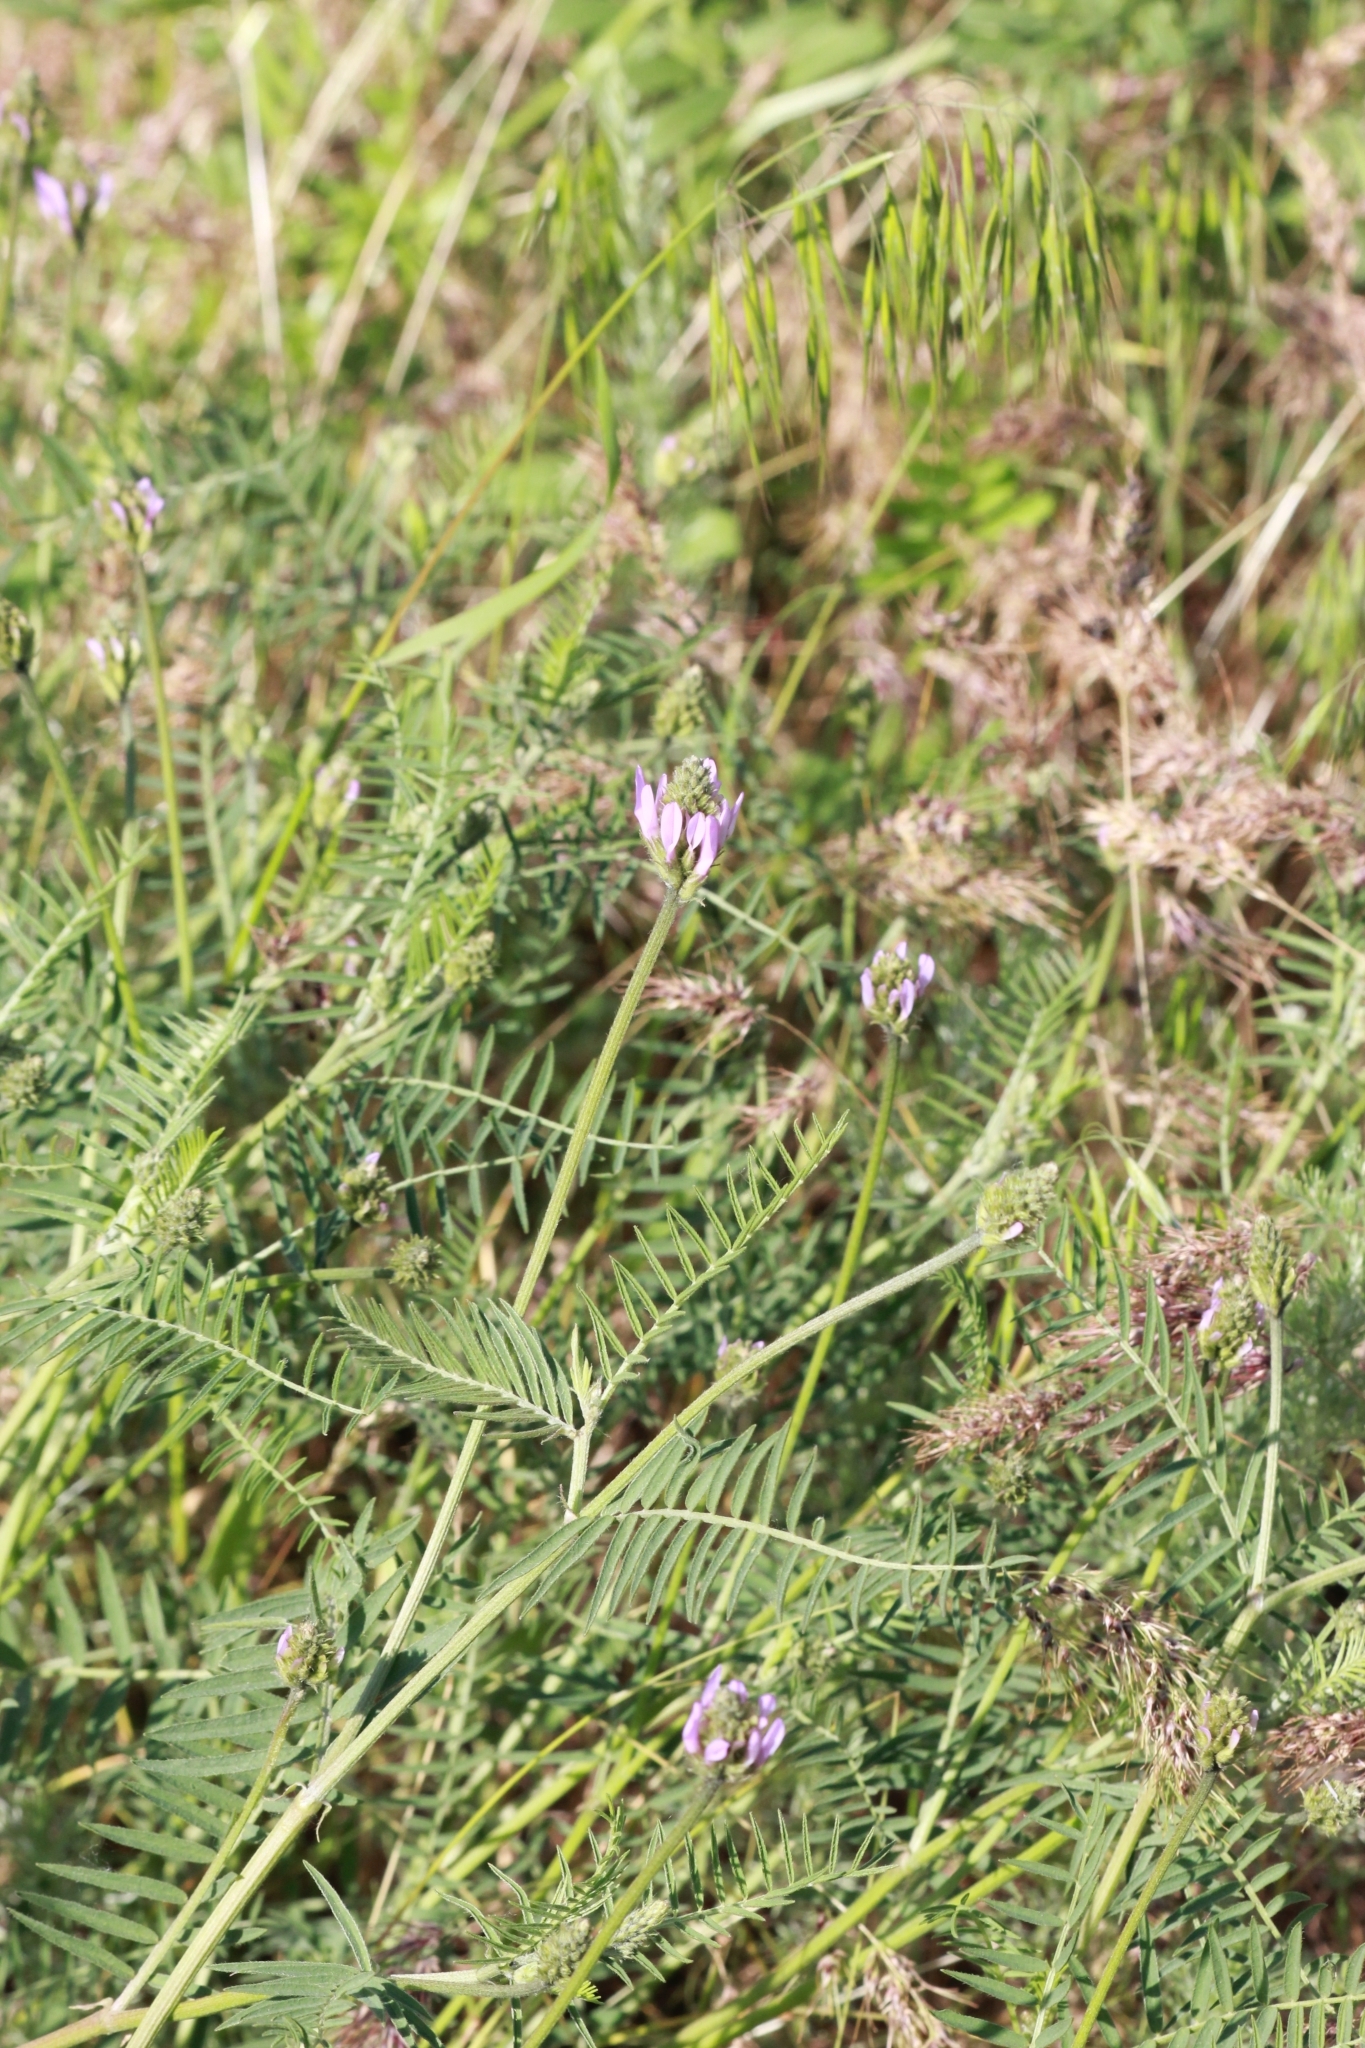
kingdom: Plantae
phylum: Tracheophyta
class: Magnoliopsida
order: Fabales
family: Fabaceae
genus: Astragalus
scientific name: Astragalus onobrychis
